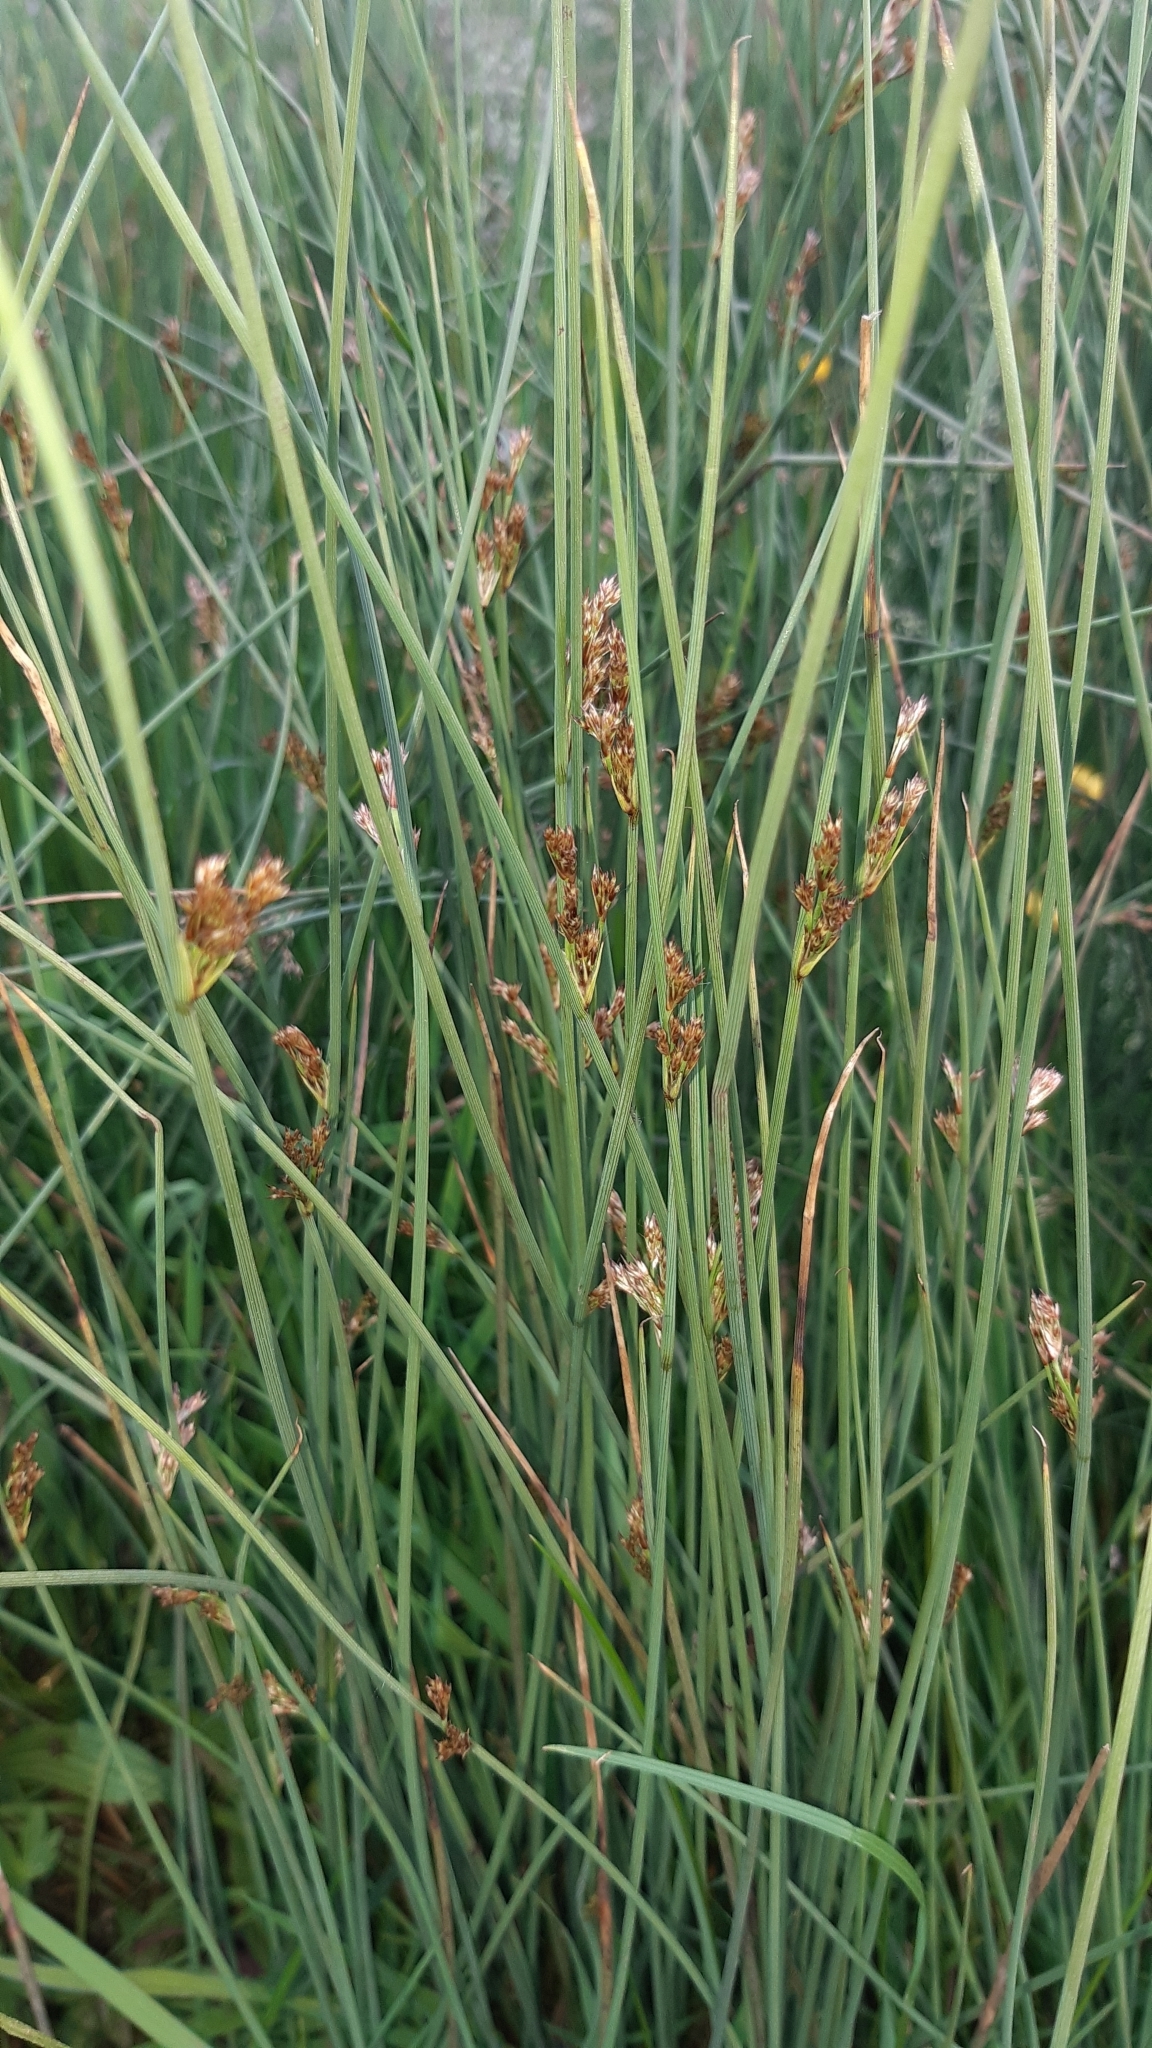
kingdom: Plantae
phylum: Tracheophyta
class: Liliopsida
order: Poales
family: Juncaceae
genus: Juncus
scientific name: Juncus inflexus
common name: Hard rush
